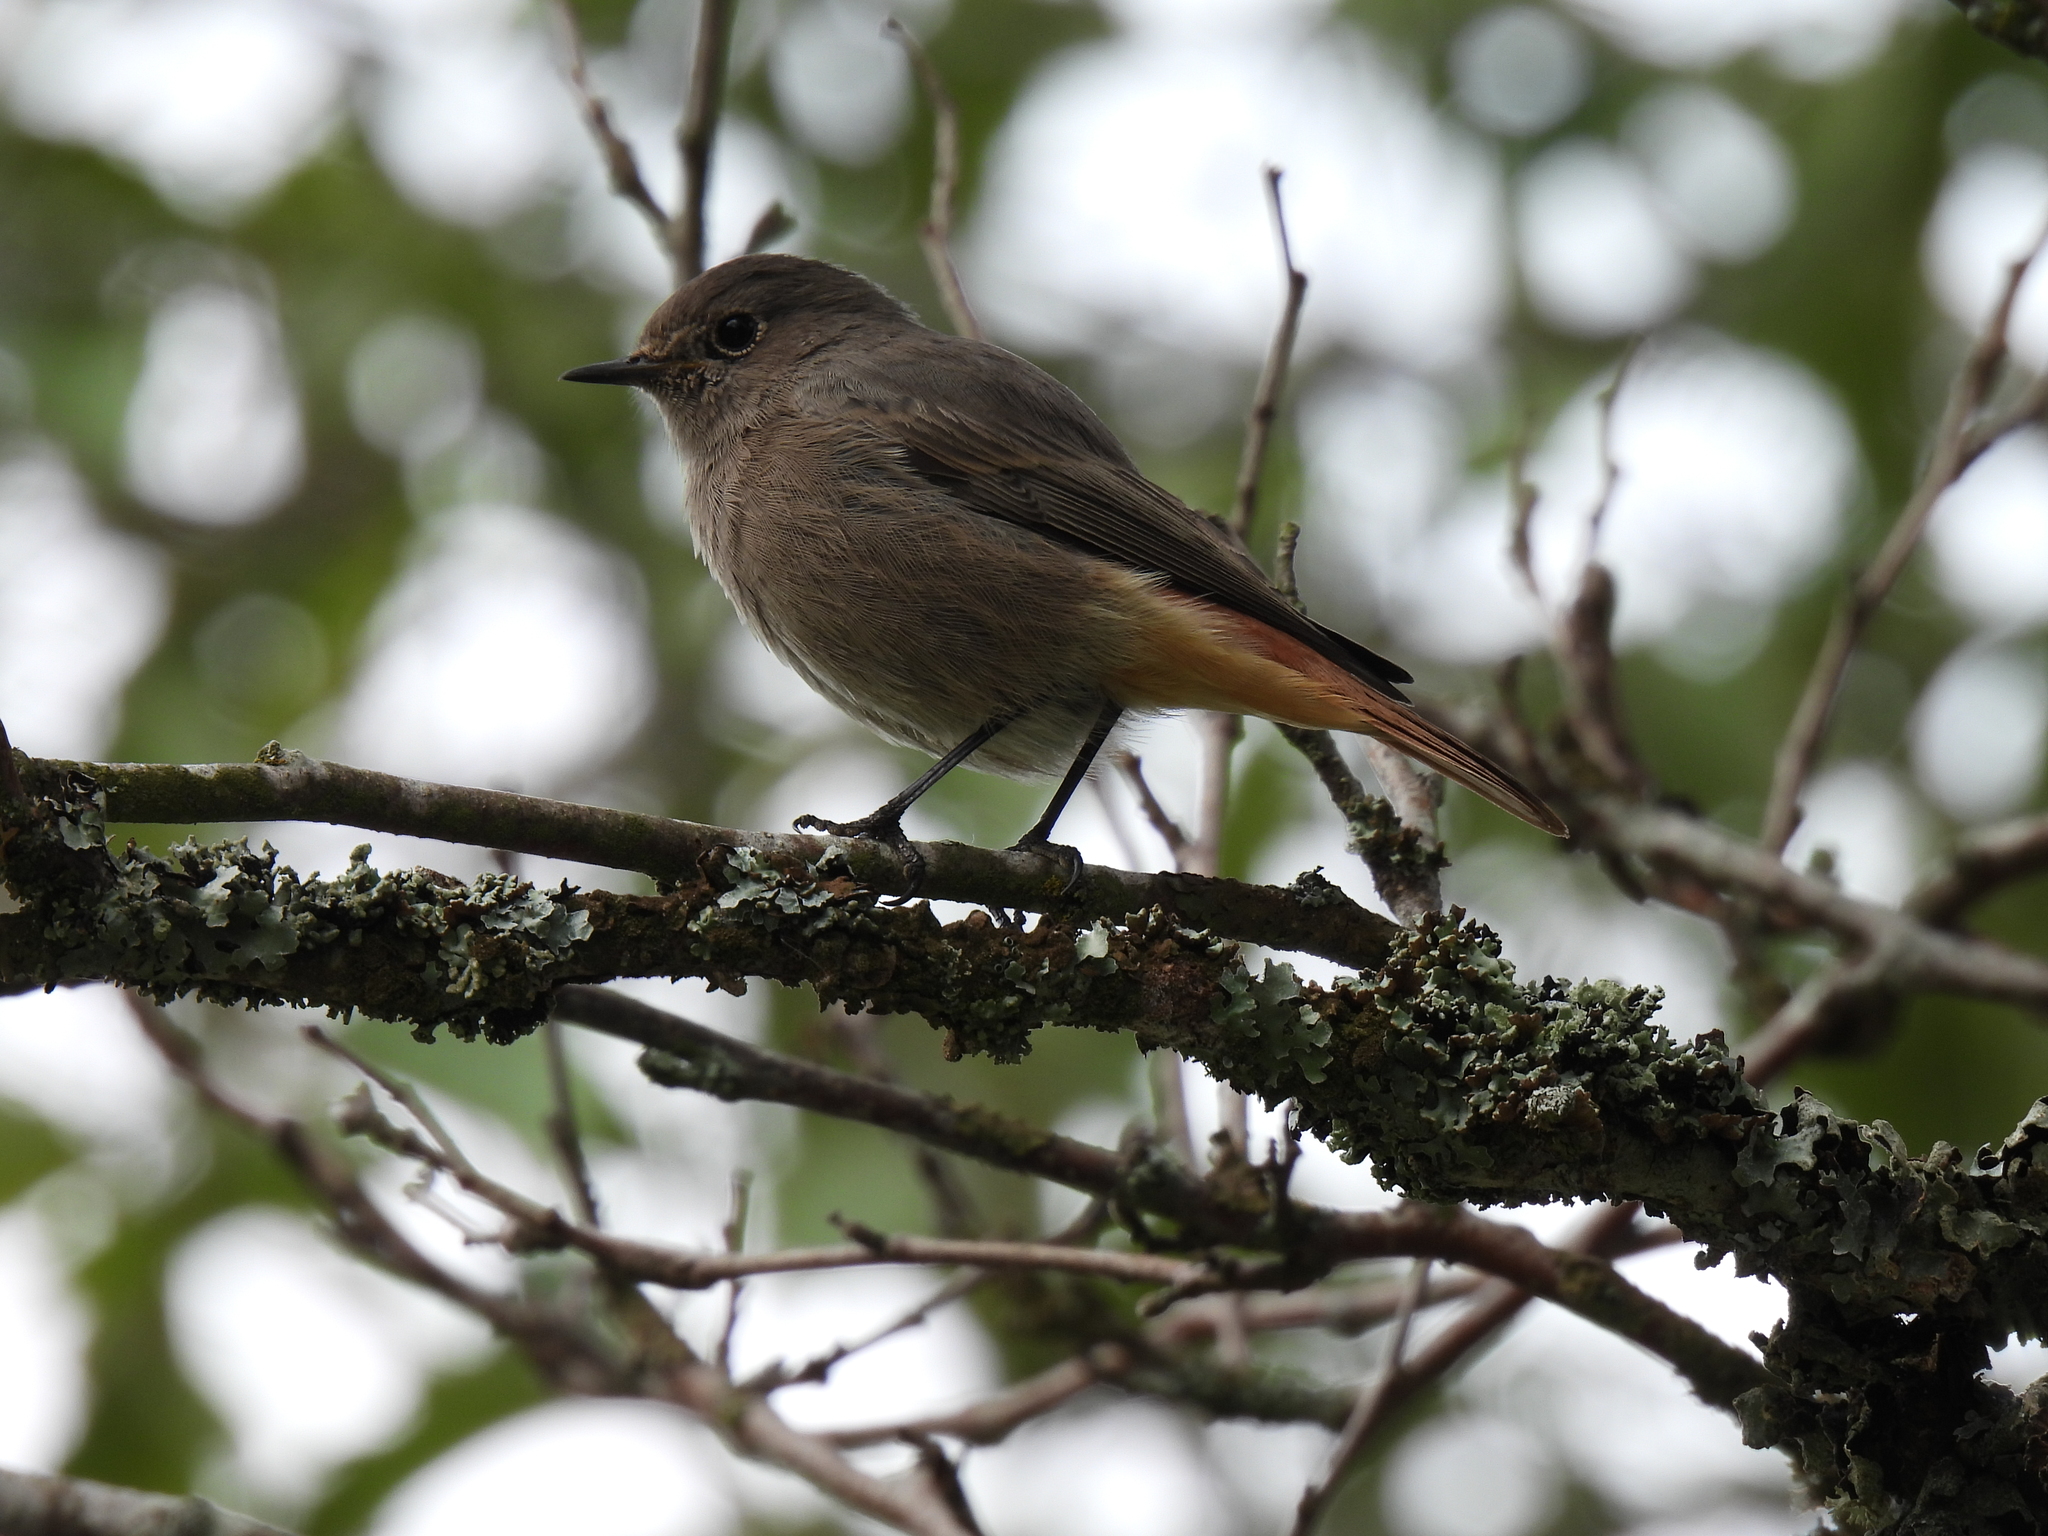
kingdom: Animalia
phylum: Chordata
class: Aves
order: Passeriformes
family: Muscicapidae
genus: Phoenicurus
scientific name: Phoenicurus ochruros
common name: Black redstart
